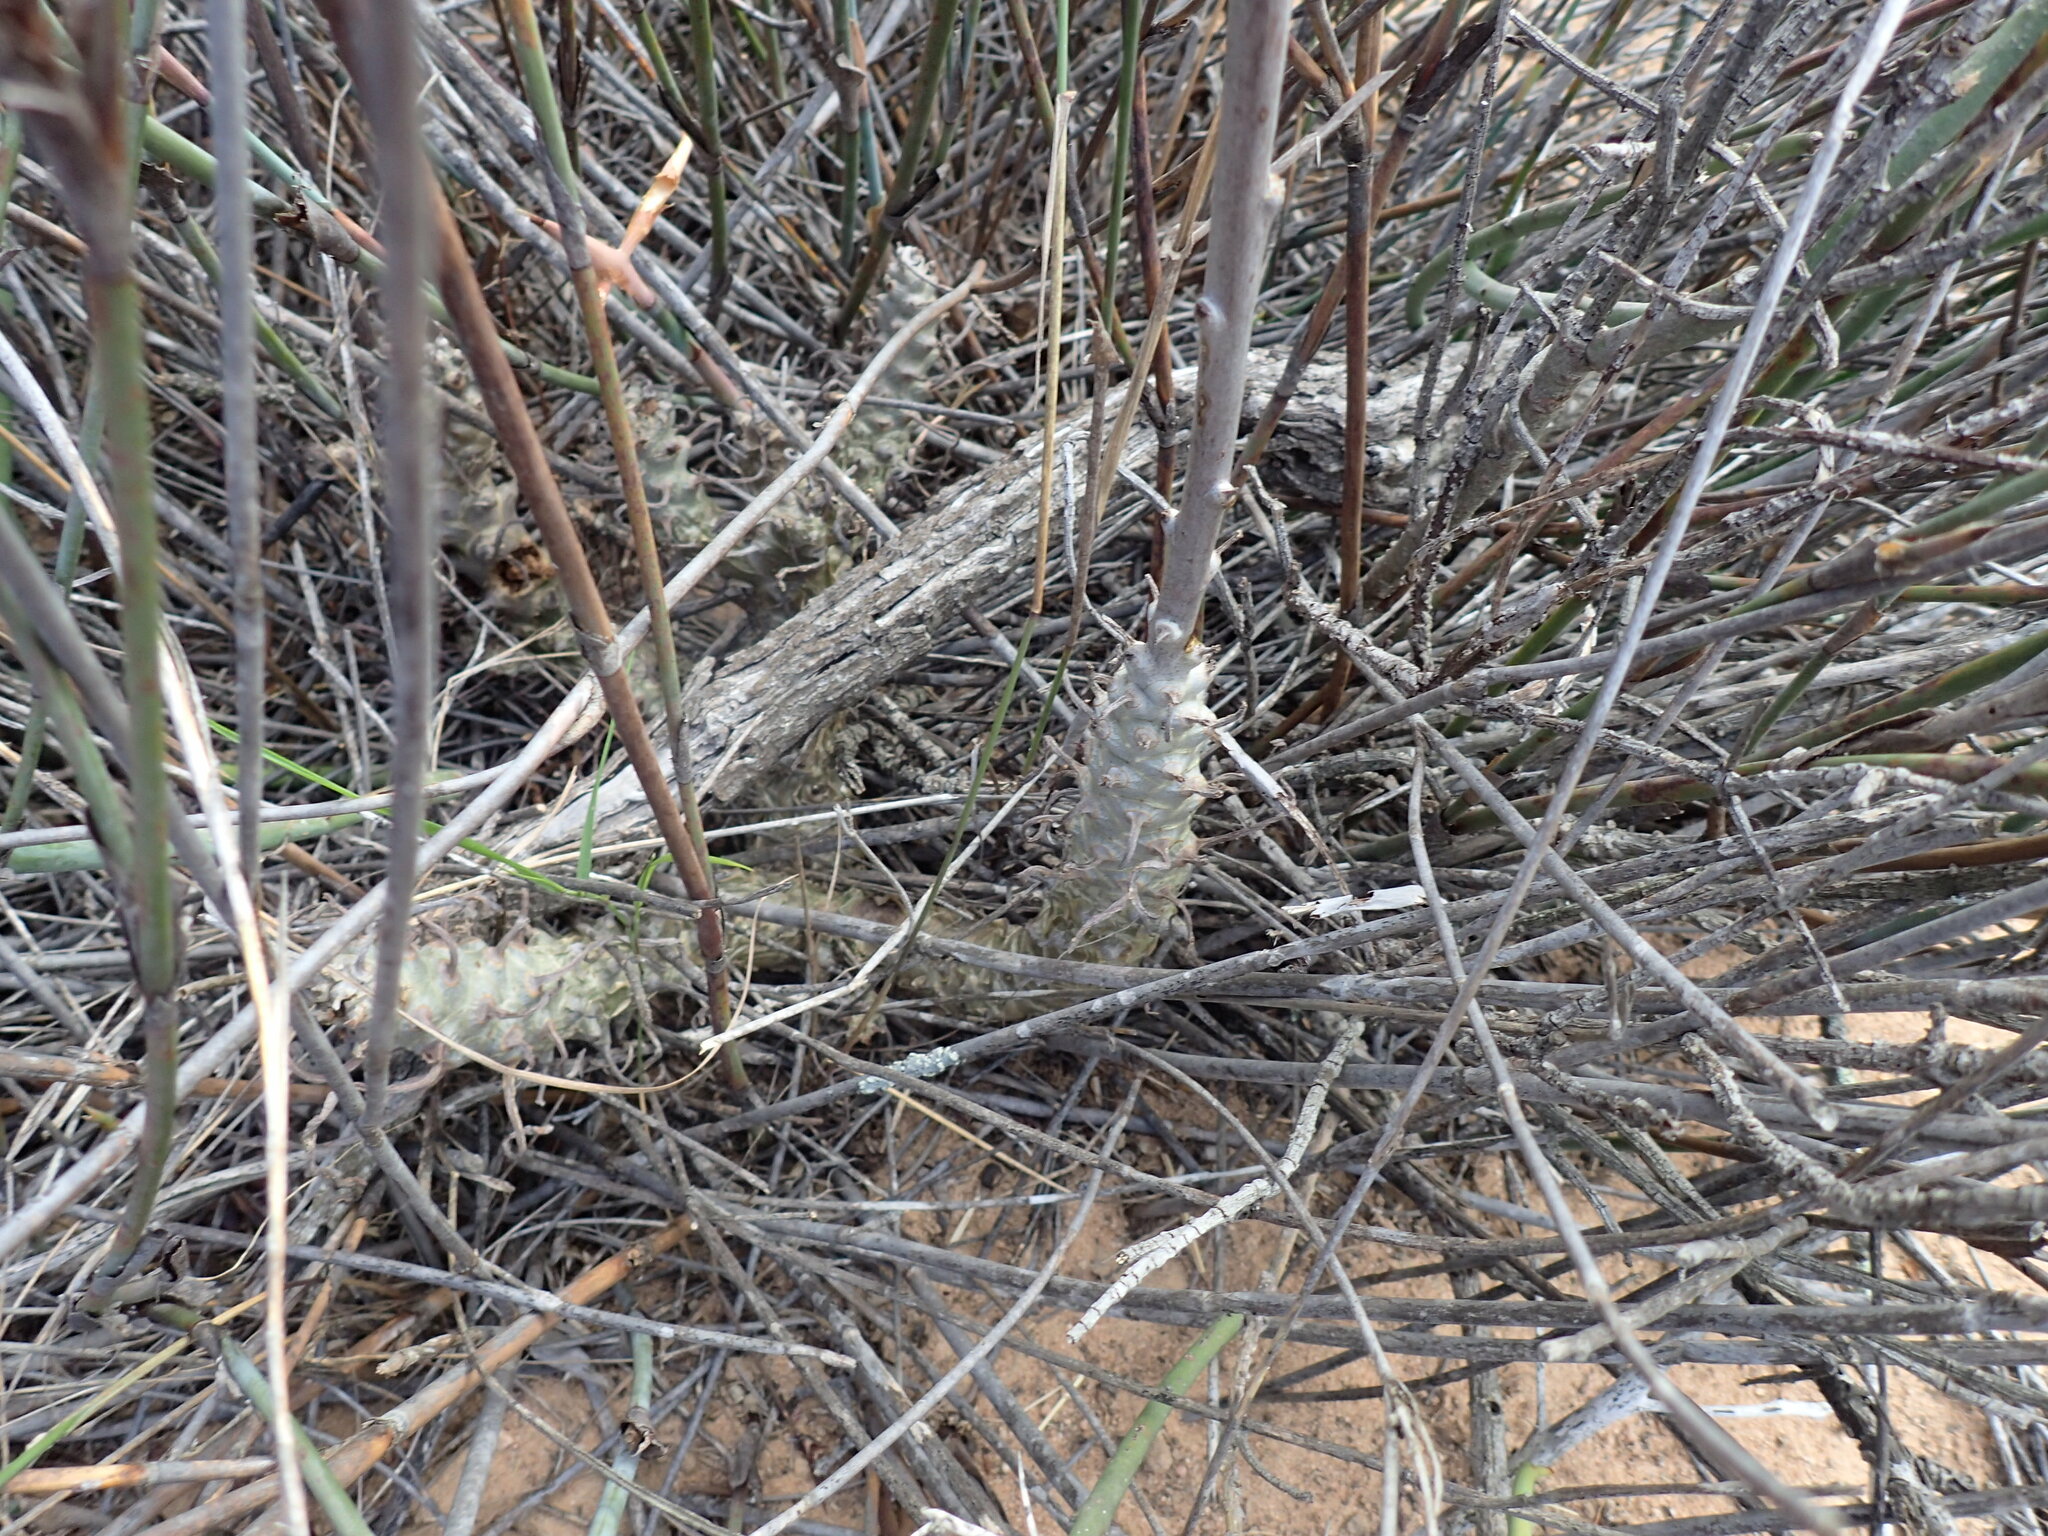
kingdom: Plantae
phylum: Tracheophyta
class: Magnoliopsida
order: Saxifragales
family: Crassulaceae
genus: Tylecodon
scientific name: Tylecodon grandiflorus
